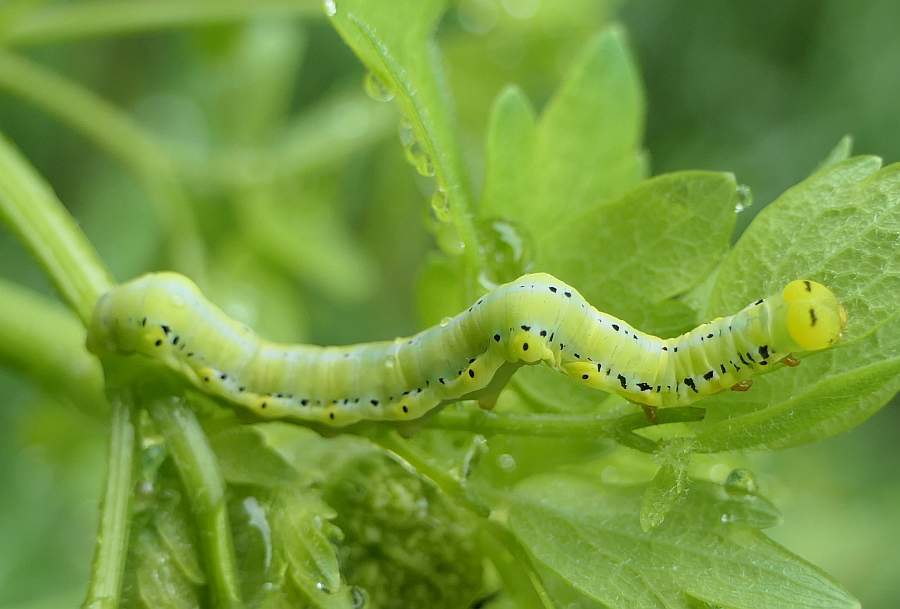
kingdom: Animalia
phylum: Arthropoda
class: Insecta
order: Lepidoptera
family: Erebidae
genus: Calyptra
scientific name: Calyptra canadensis
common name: Canadian owlet
